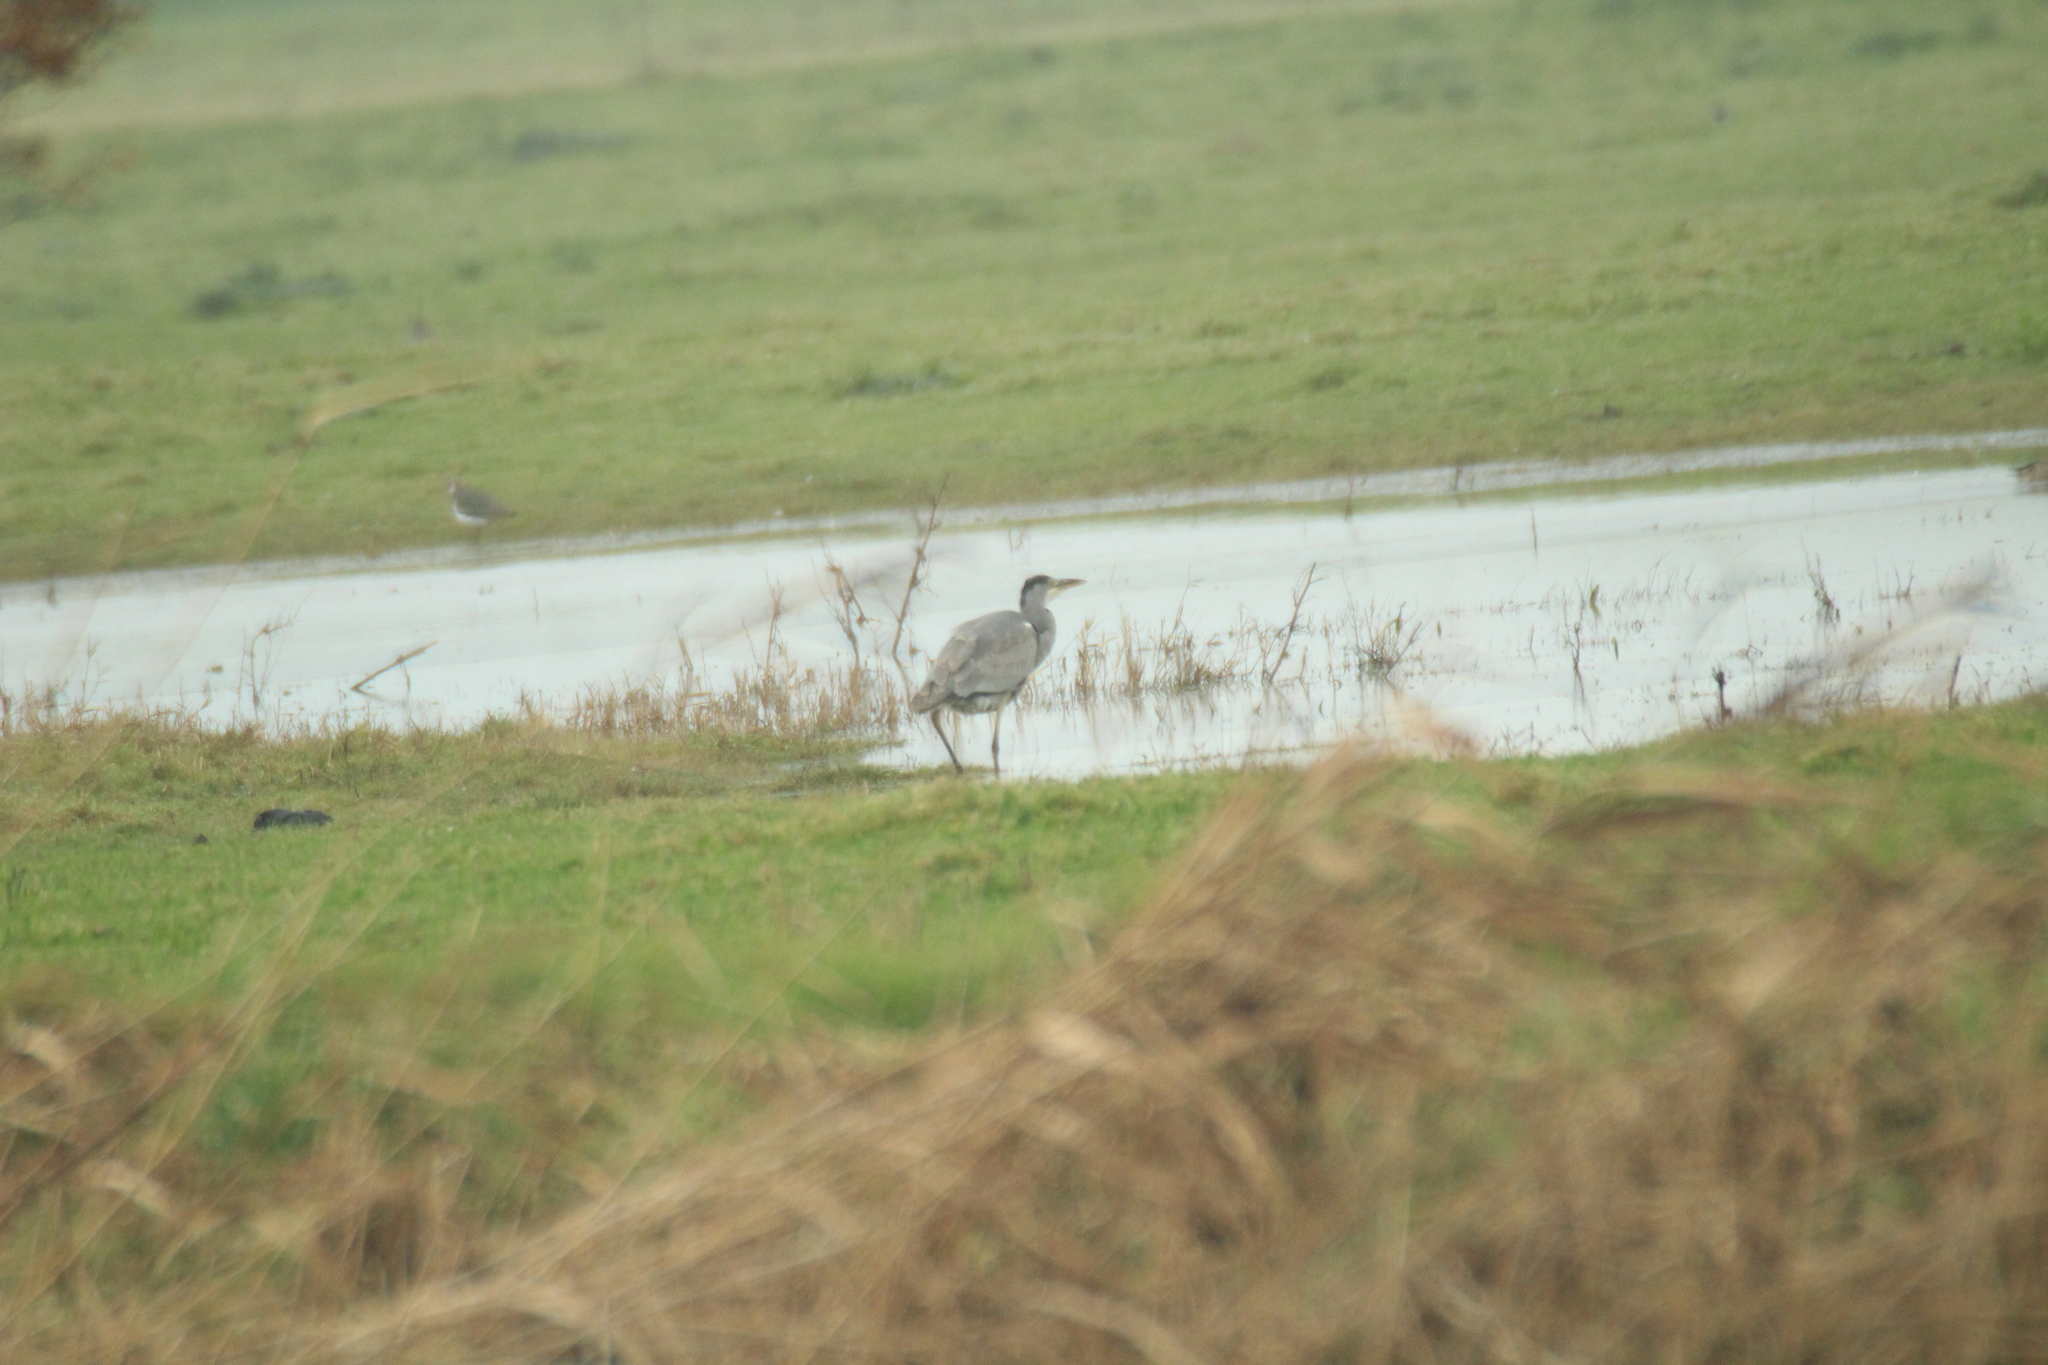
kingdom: Animalia
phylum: Chordata
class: Aves
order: Pelecaniformes
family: Ardeidae
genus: Ardea
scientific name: Ardea cinerea
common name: Grey heron
